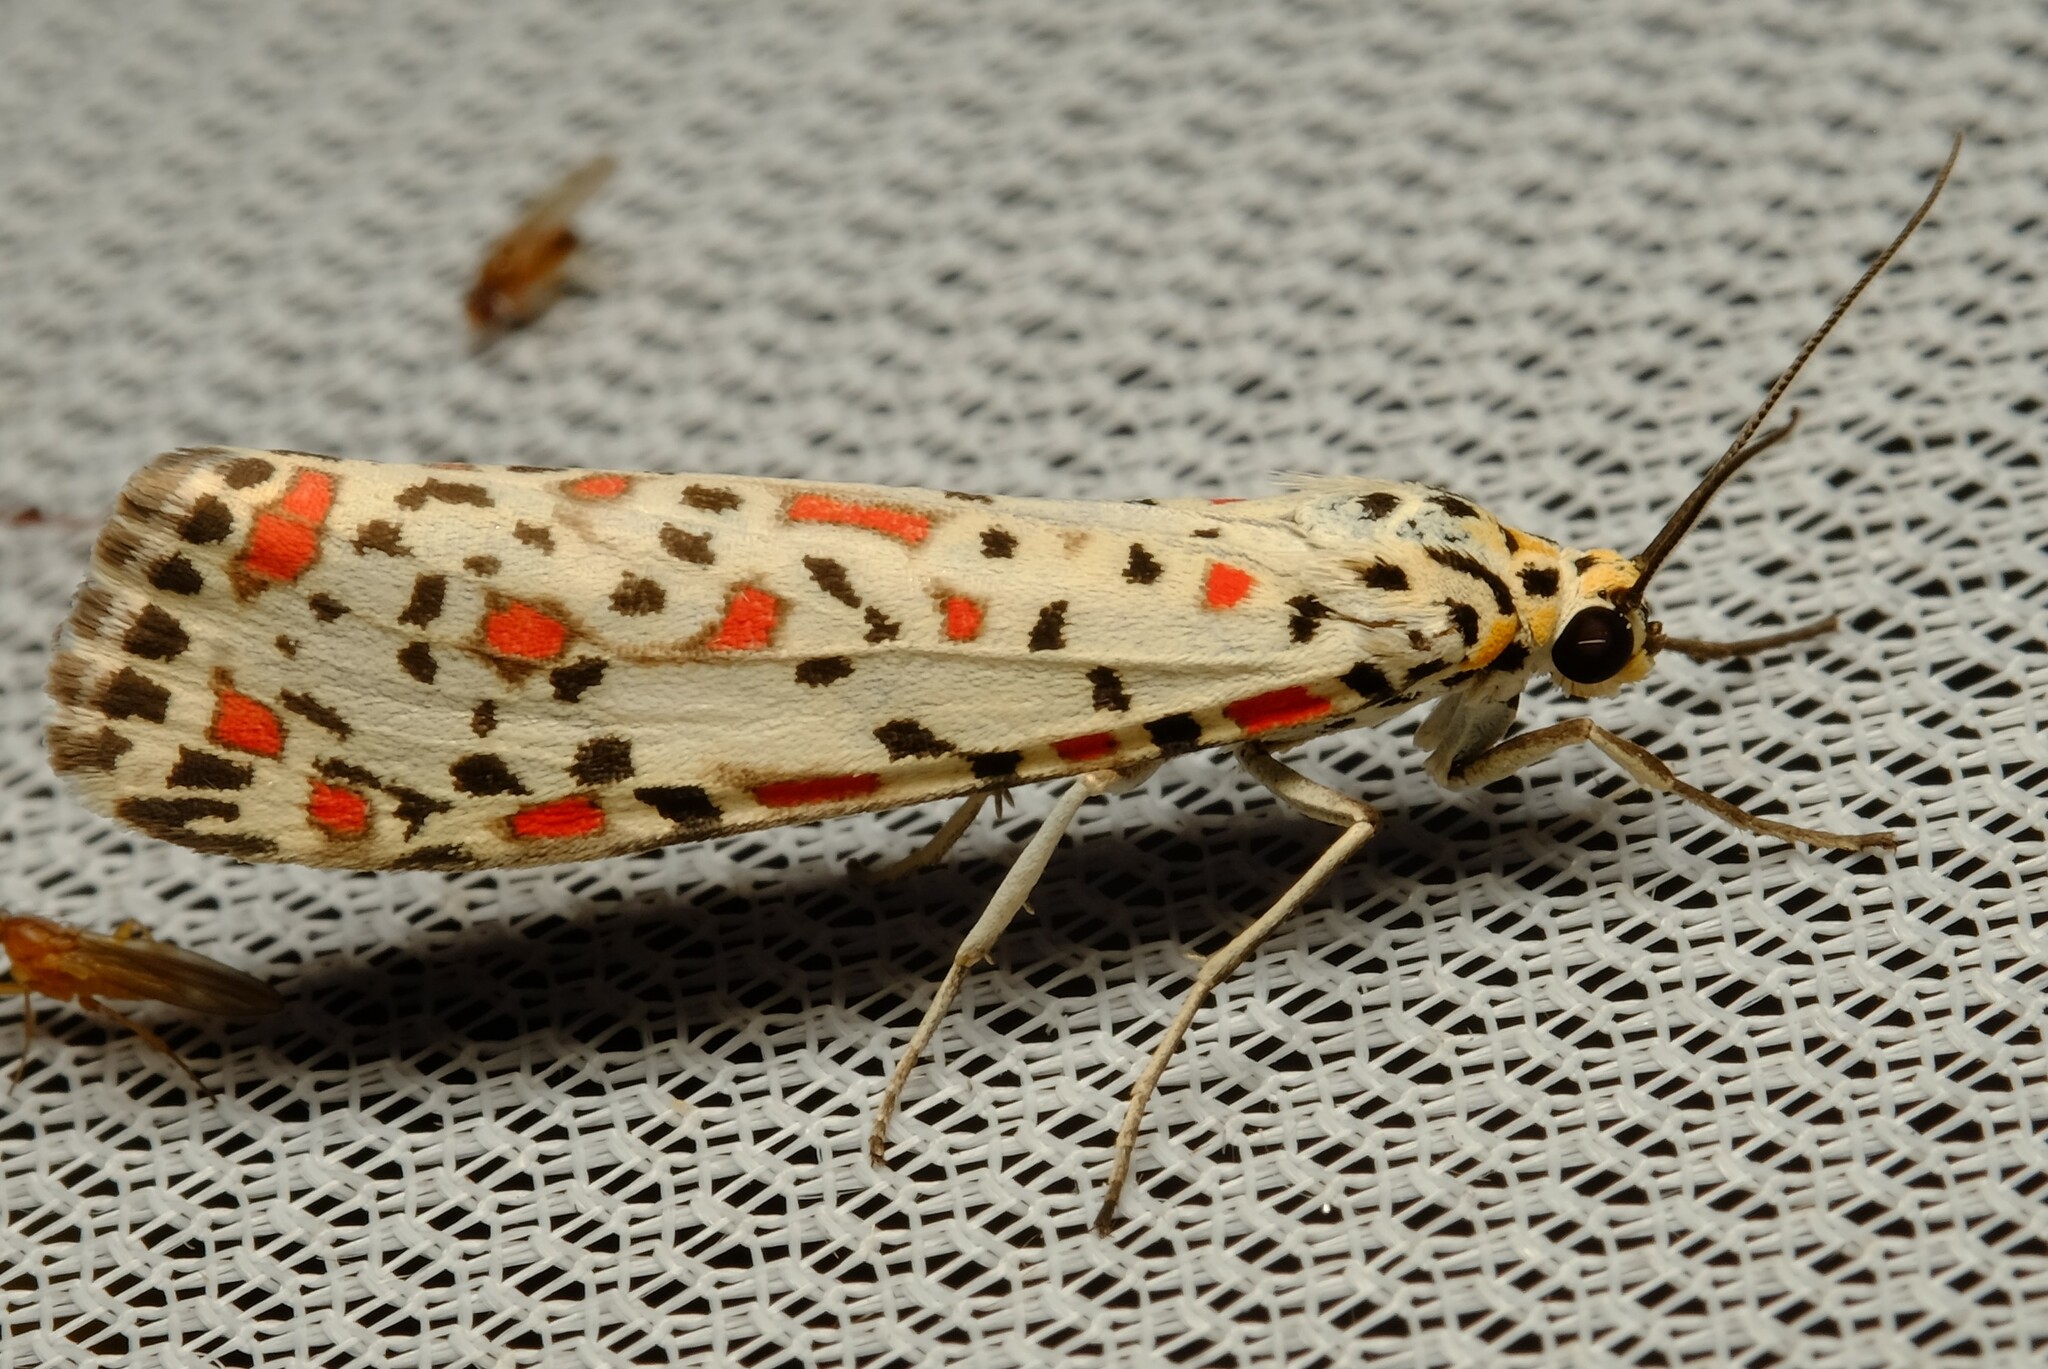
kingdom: Animalia
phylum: Arthropoda
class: Insecta
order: Lepidoptera
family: Erebidae
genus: Utetheisa
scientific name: Utetheisa pulchelloides
